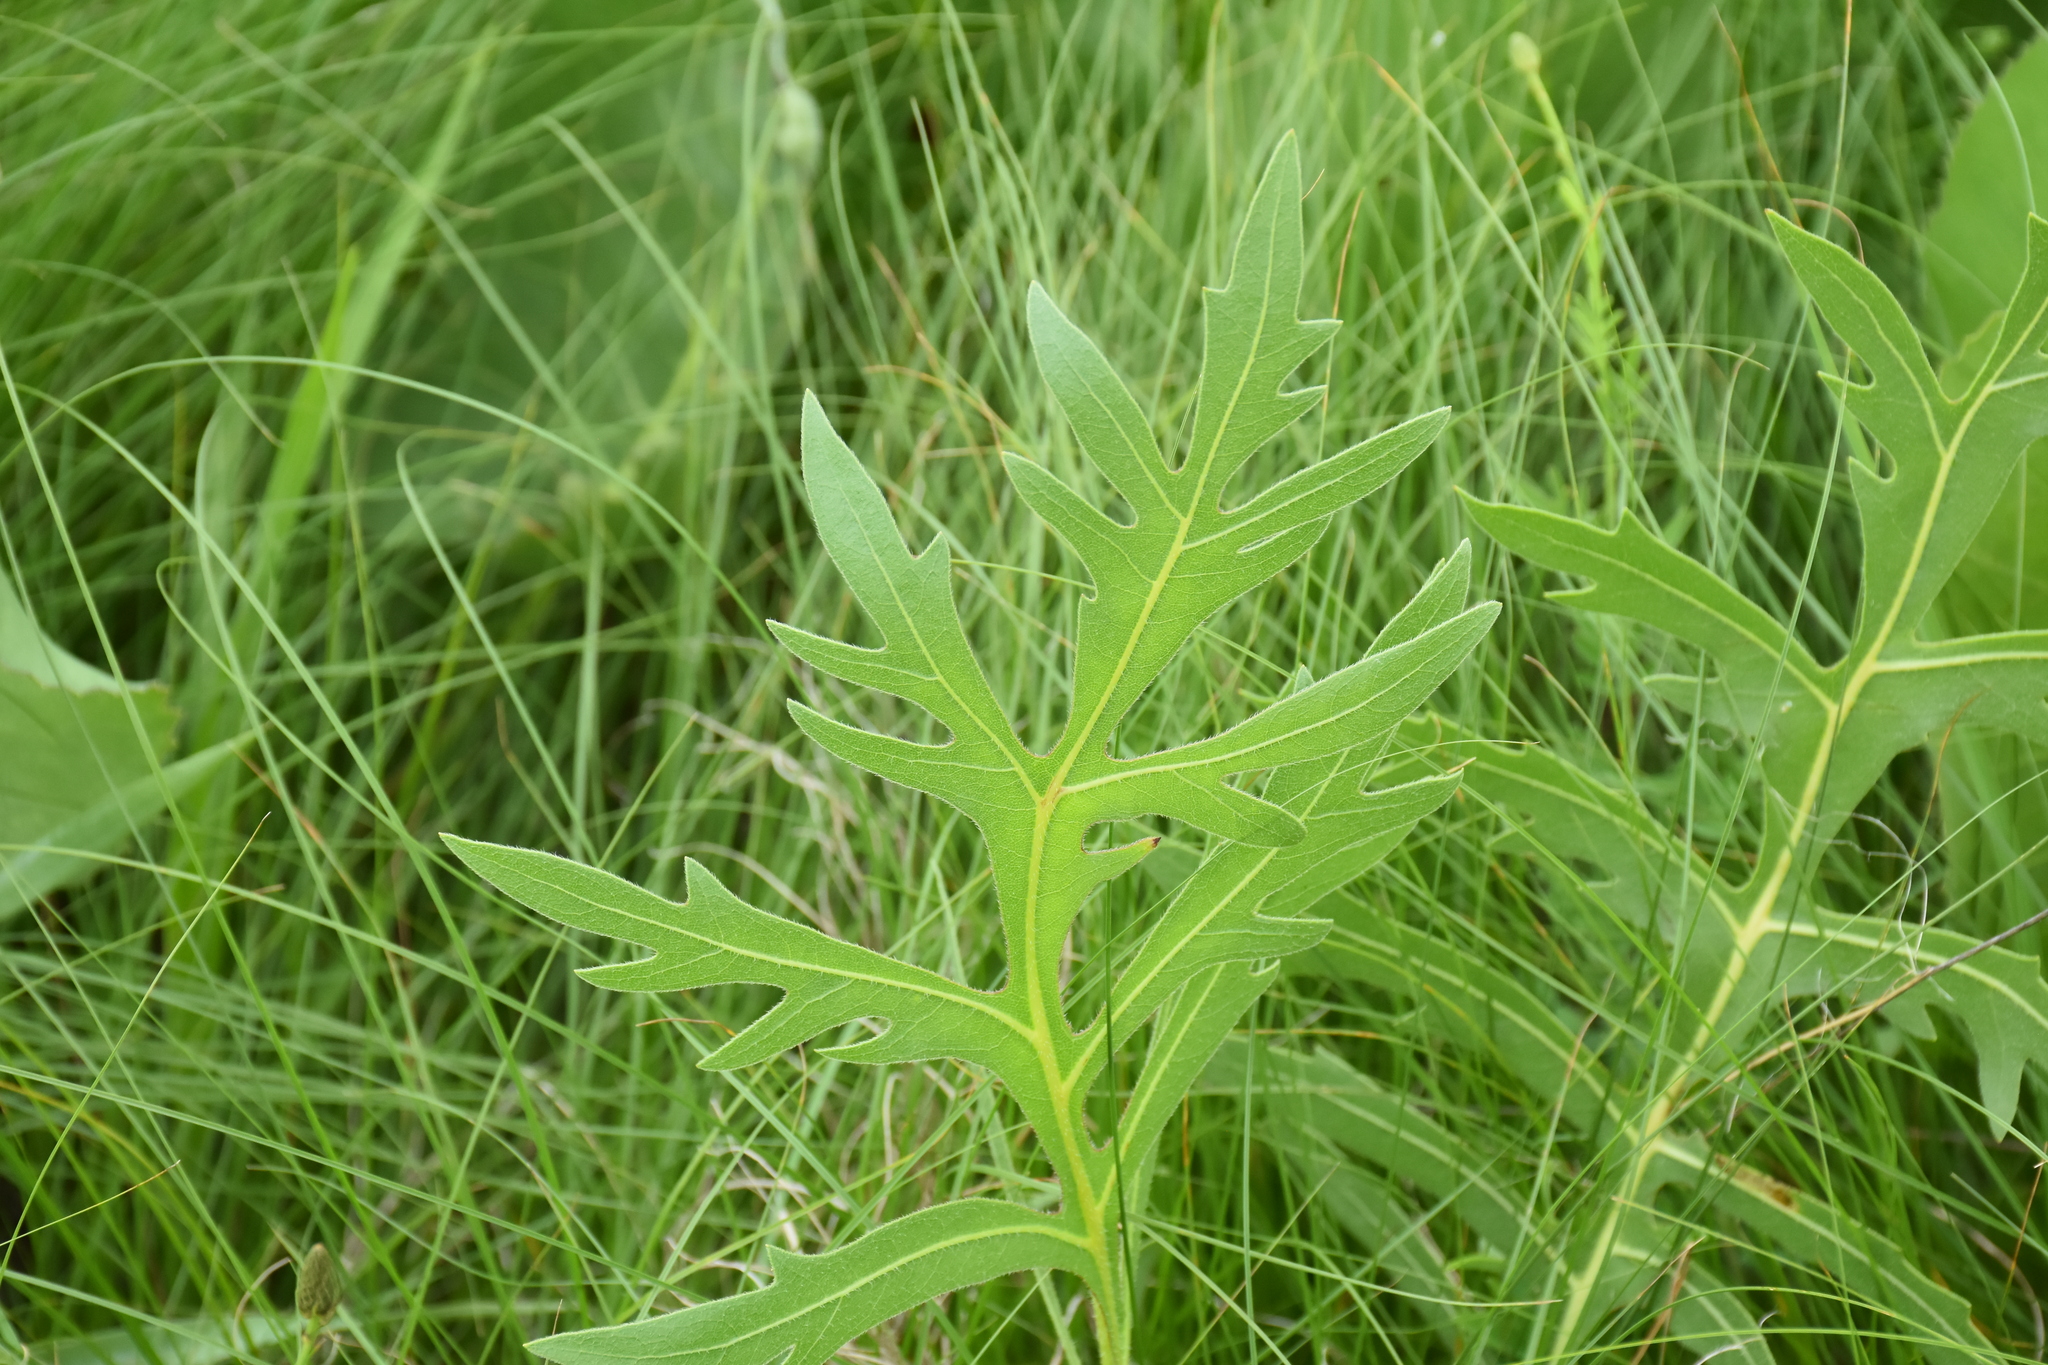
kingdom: Plantae
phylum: Tracheophyta
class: Magnoliopsida
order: Asterales
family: Asteraceae
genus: Silphium
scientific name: Silphium laciniatum
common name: Polarplant
